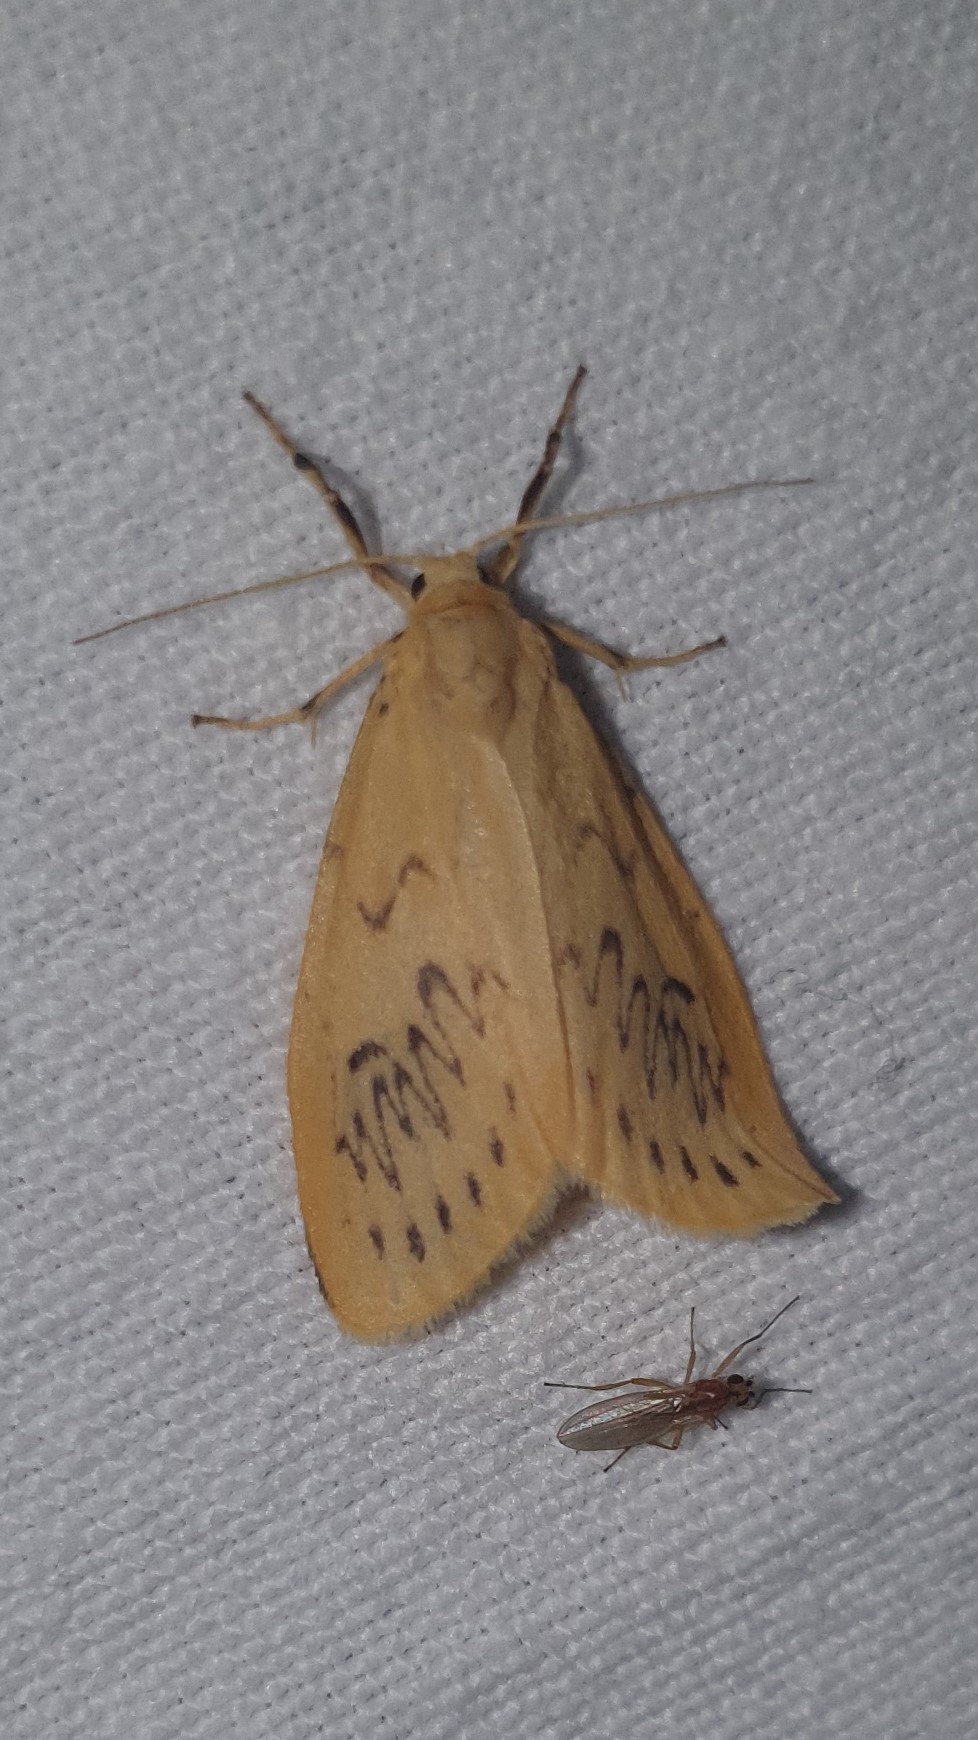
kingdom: Animalia
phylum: Arthropoda
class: Insecta
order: Lepidoptera
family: Erebidae
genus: Miltochrista
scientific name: Miltochrista miniata
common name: Rosy footman
